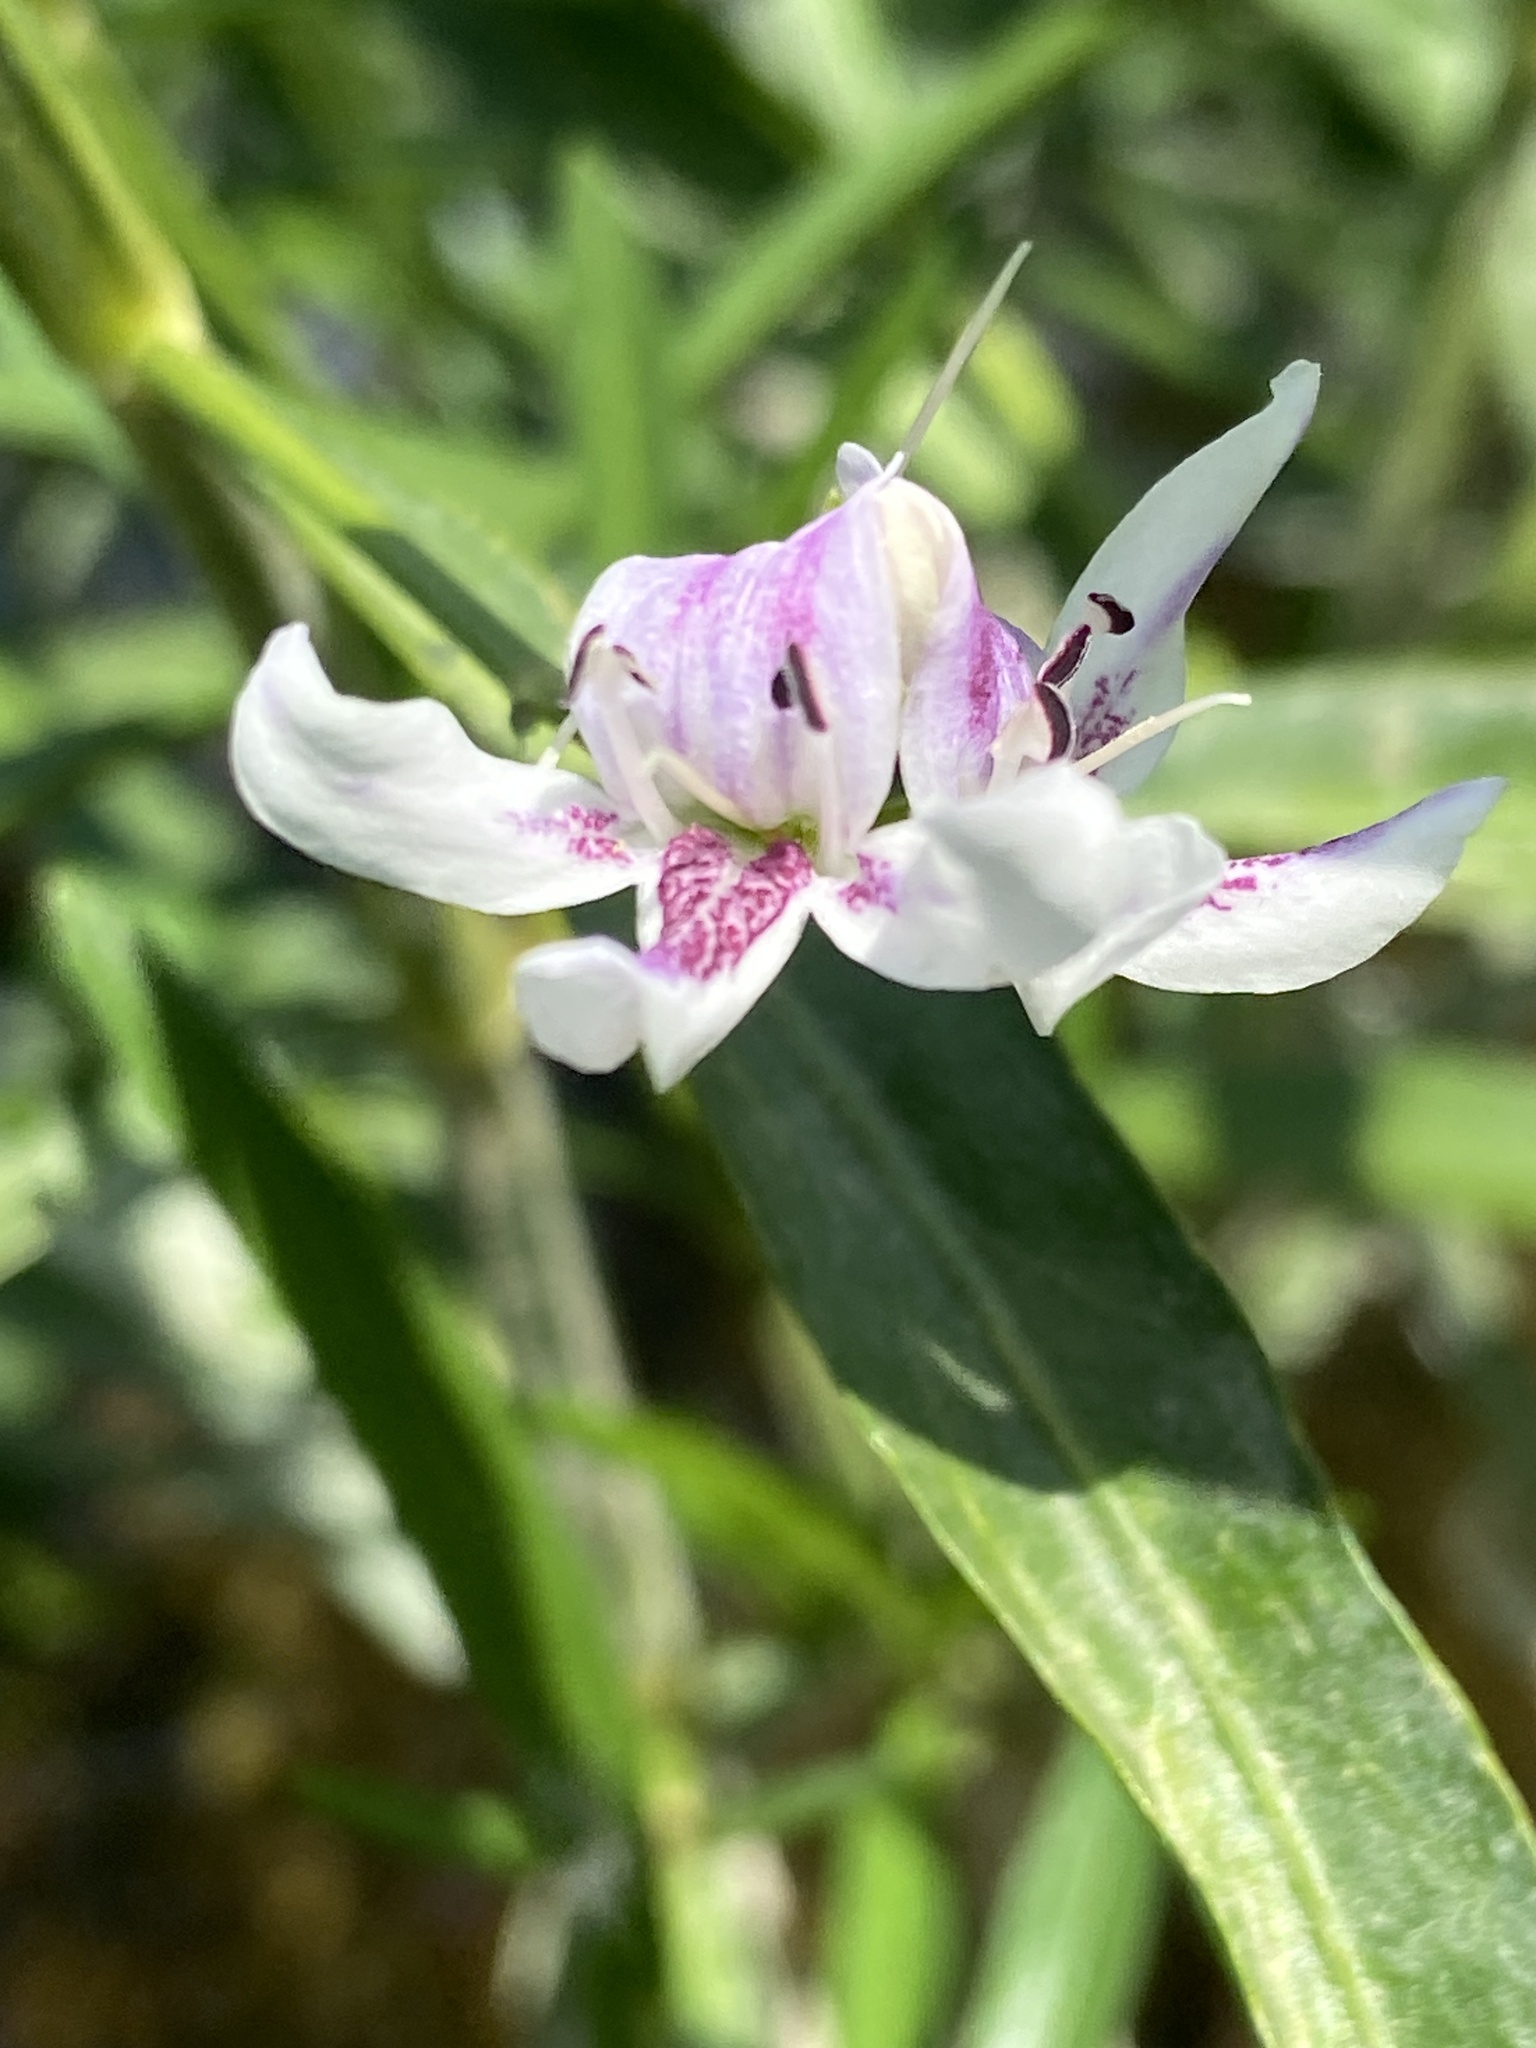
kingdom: Plantae
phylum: Tracheophyta
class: Magnoliopsida
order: Lamiales
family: Acanthaceae
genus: Dianthera
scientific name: Dianthera americana
